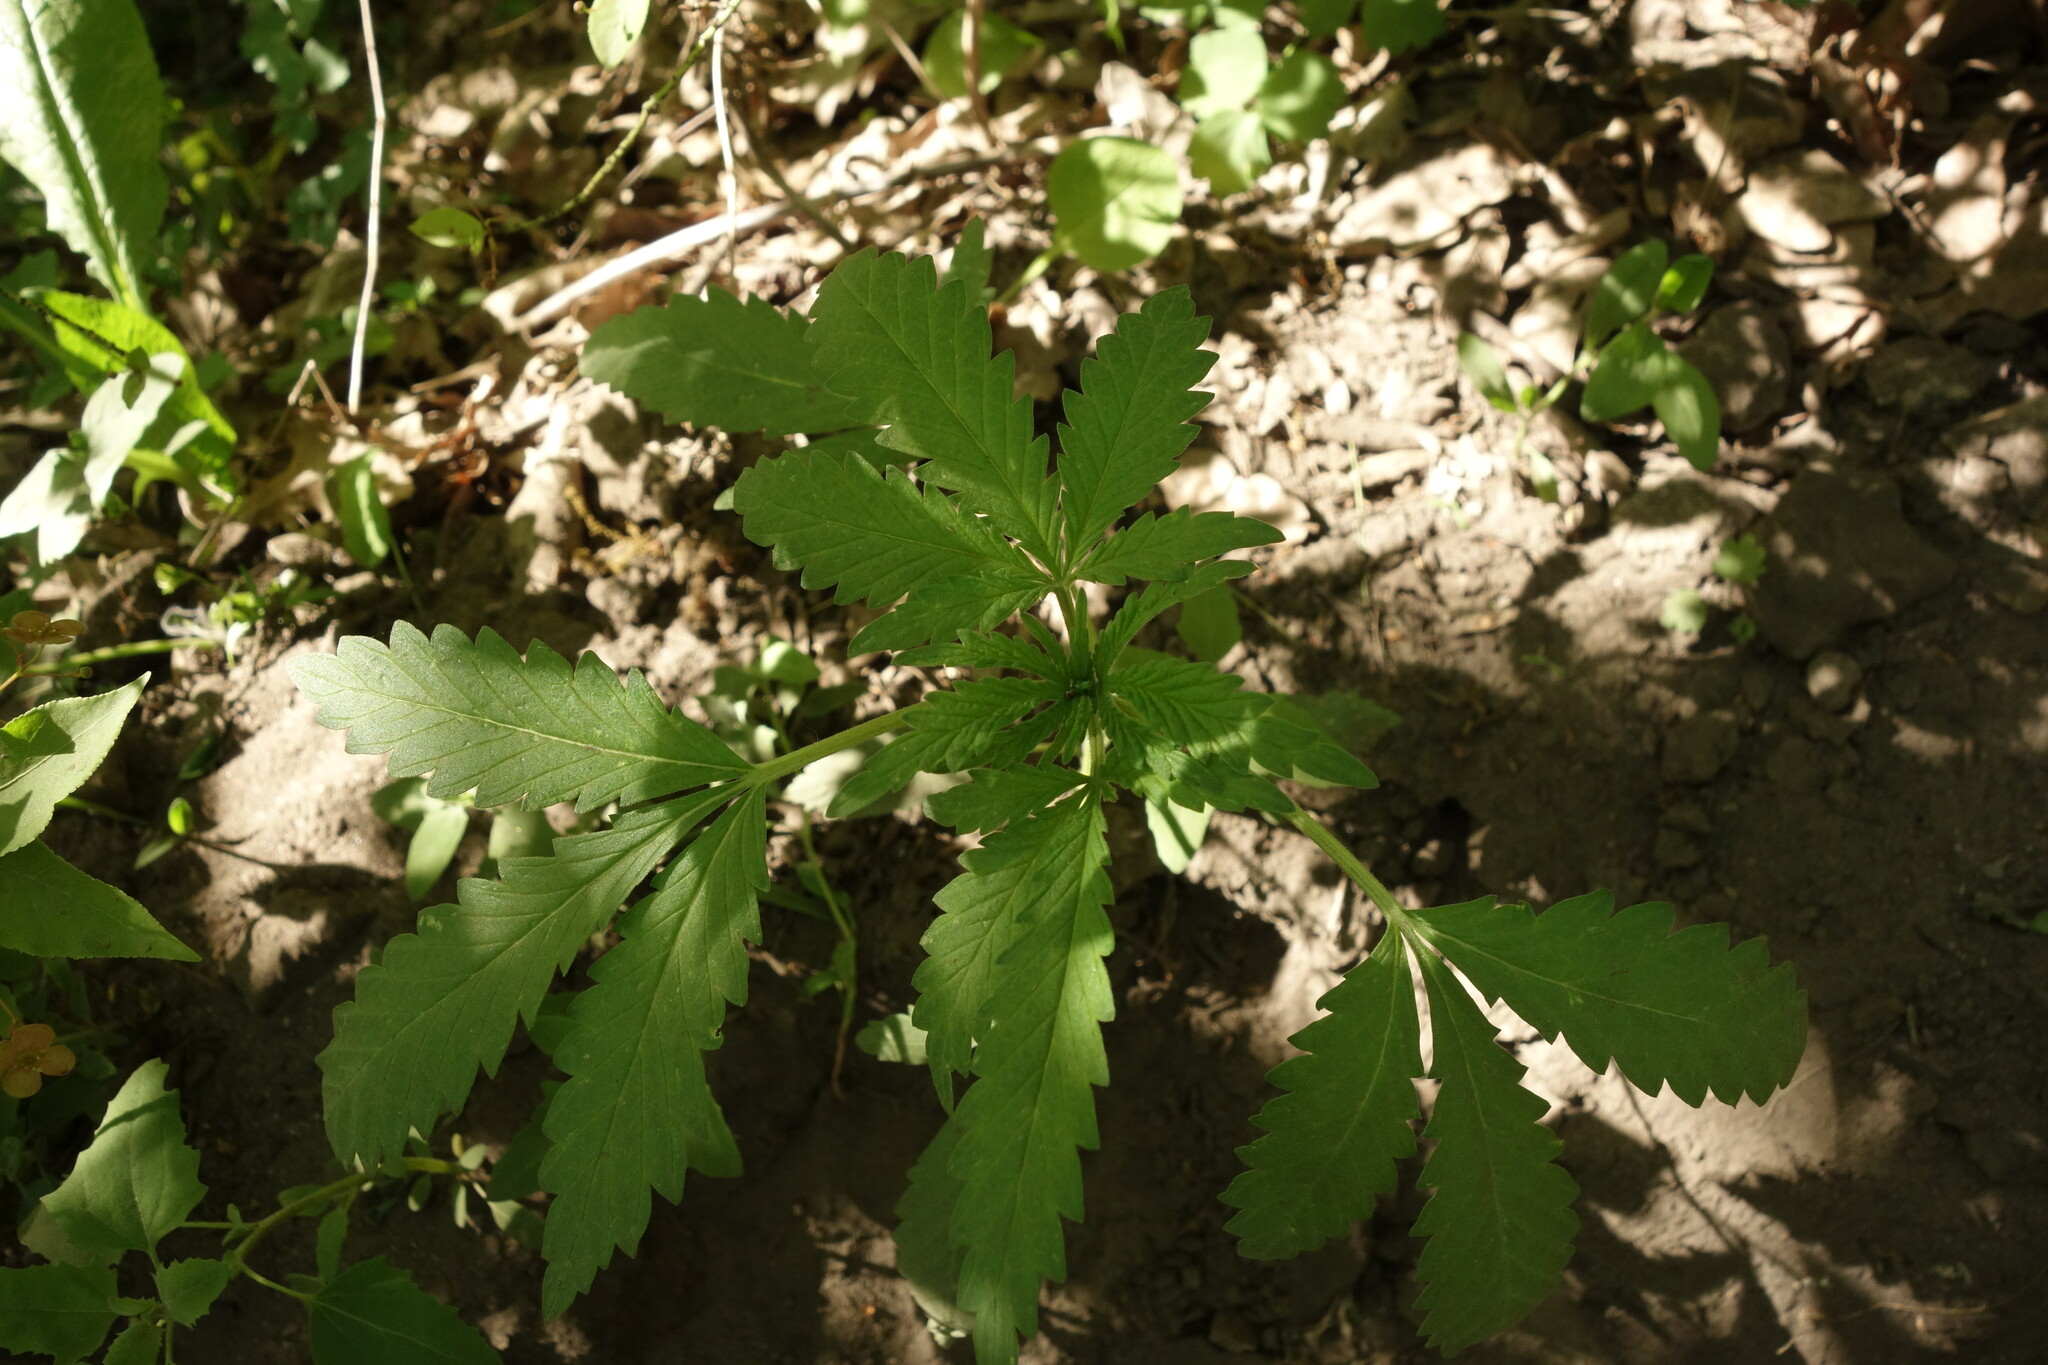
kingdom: Plantae
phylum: Tracheophyta
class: Magnoliopsida
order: Rosales
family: Cannabaceae
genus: Cannabis
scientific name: Cannabis sativa
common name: Hemp
